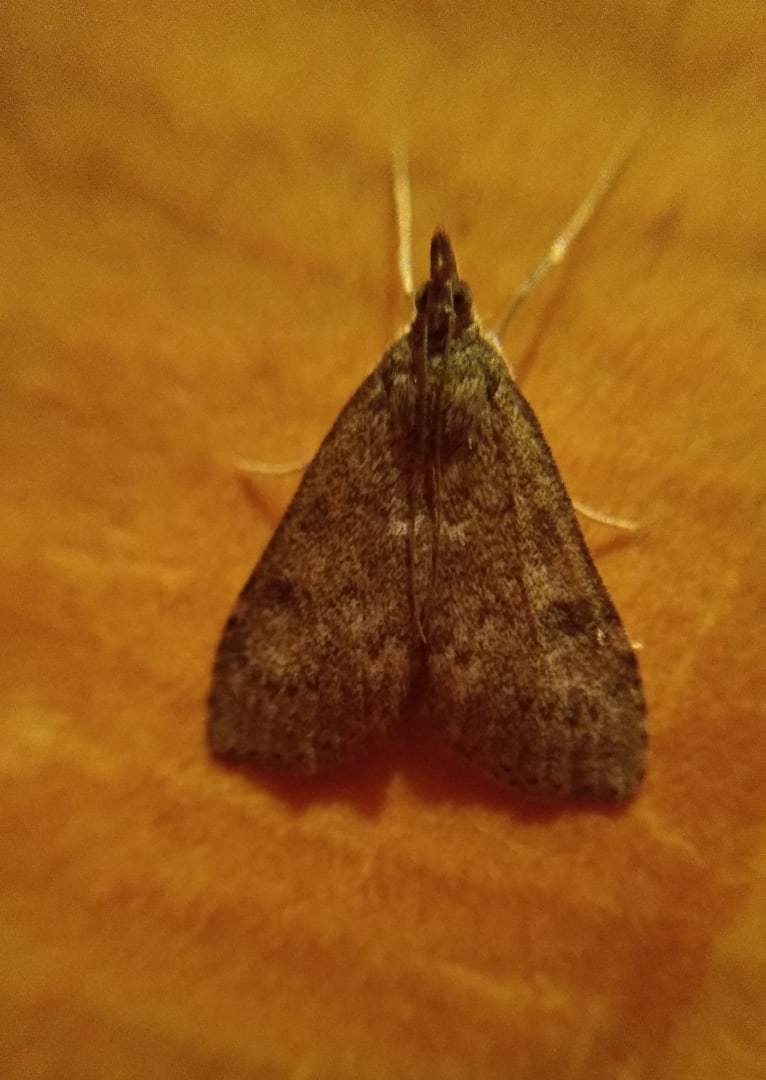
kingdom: Animalia
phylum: Arthropoda
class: Insecta
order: Lepidoptera
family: Crambidae
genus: Udea
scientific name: Udea prunalis
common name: Dusky pearl
